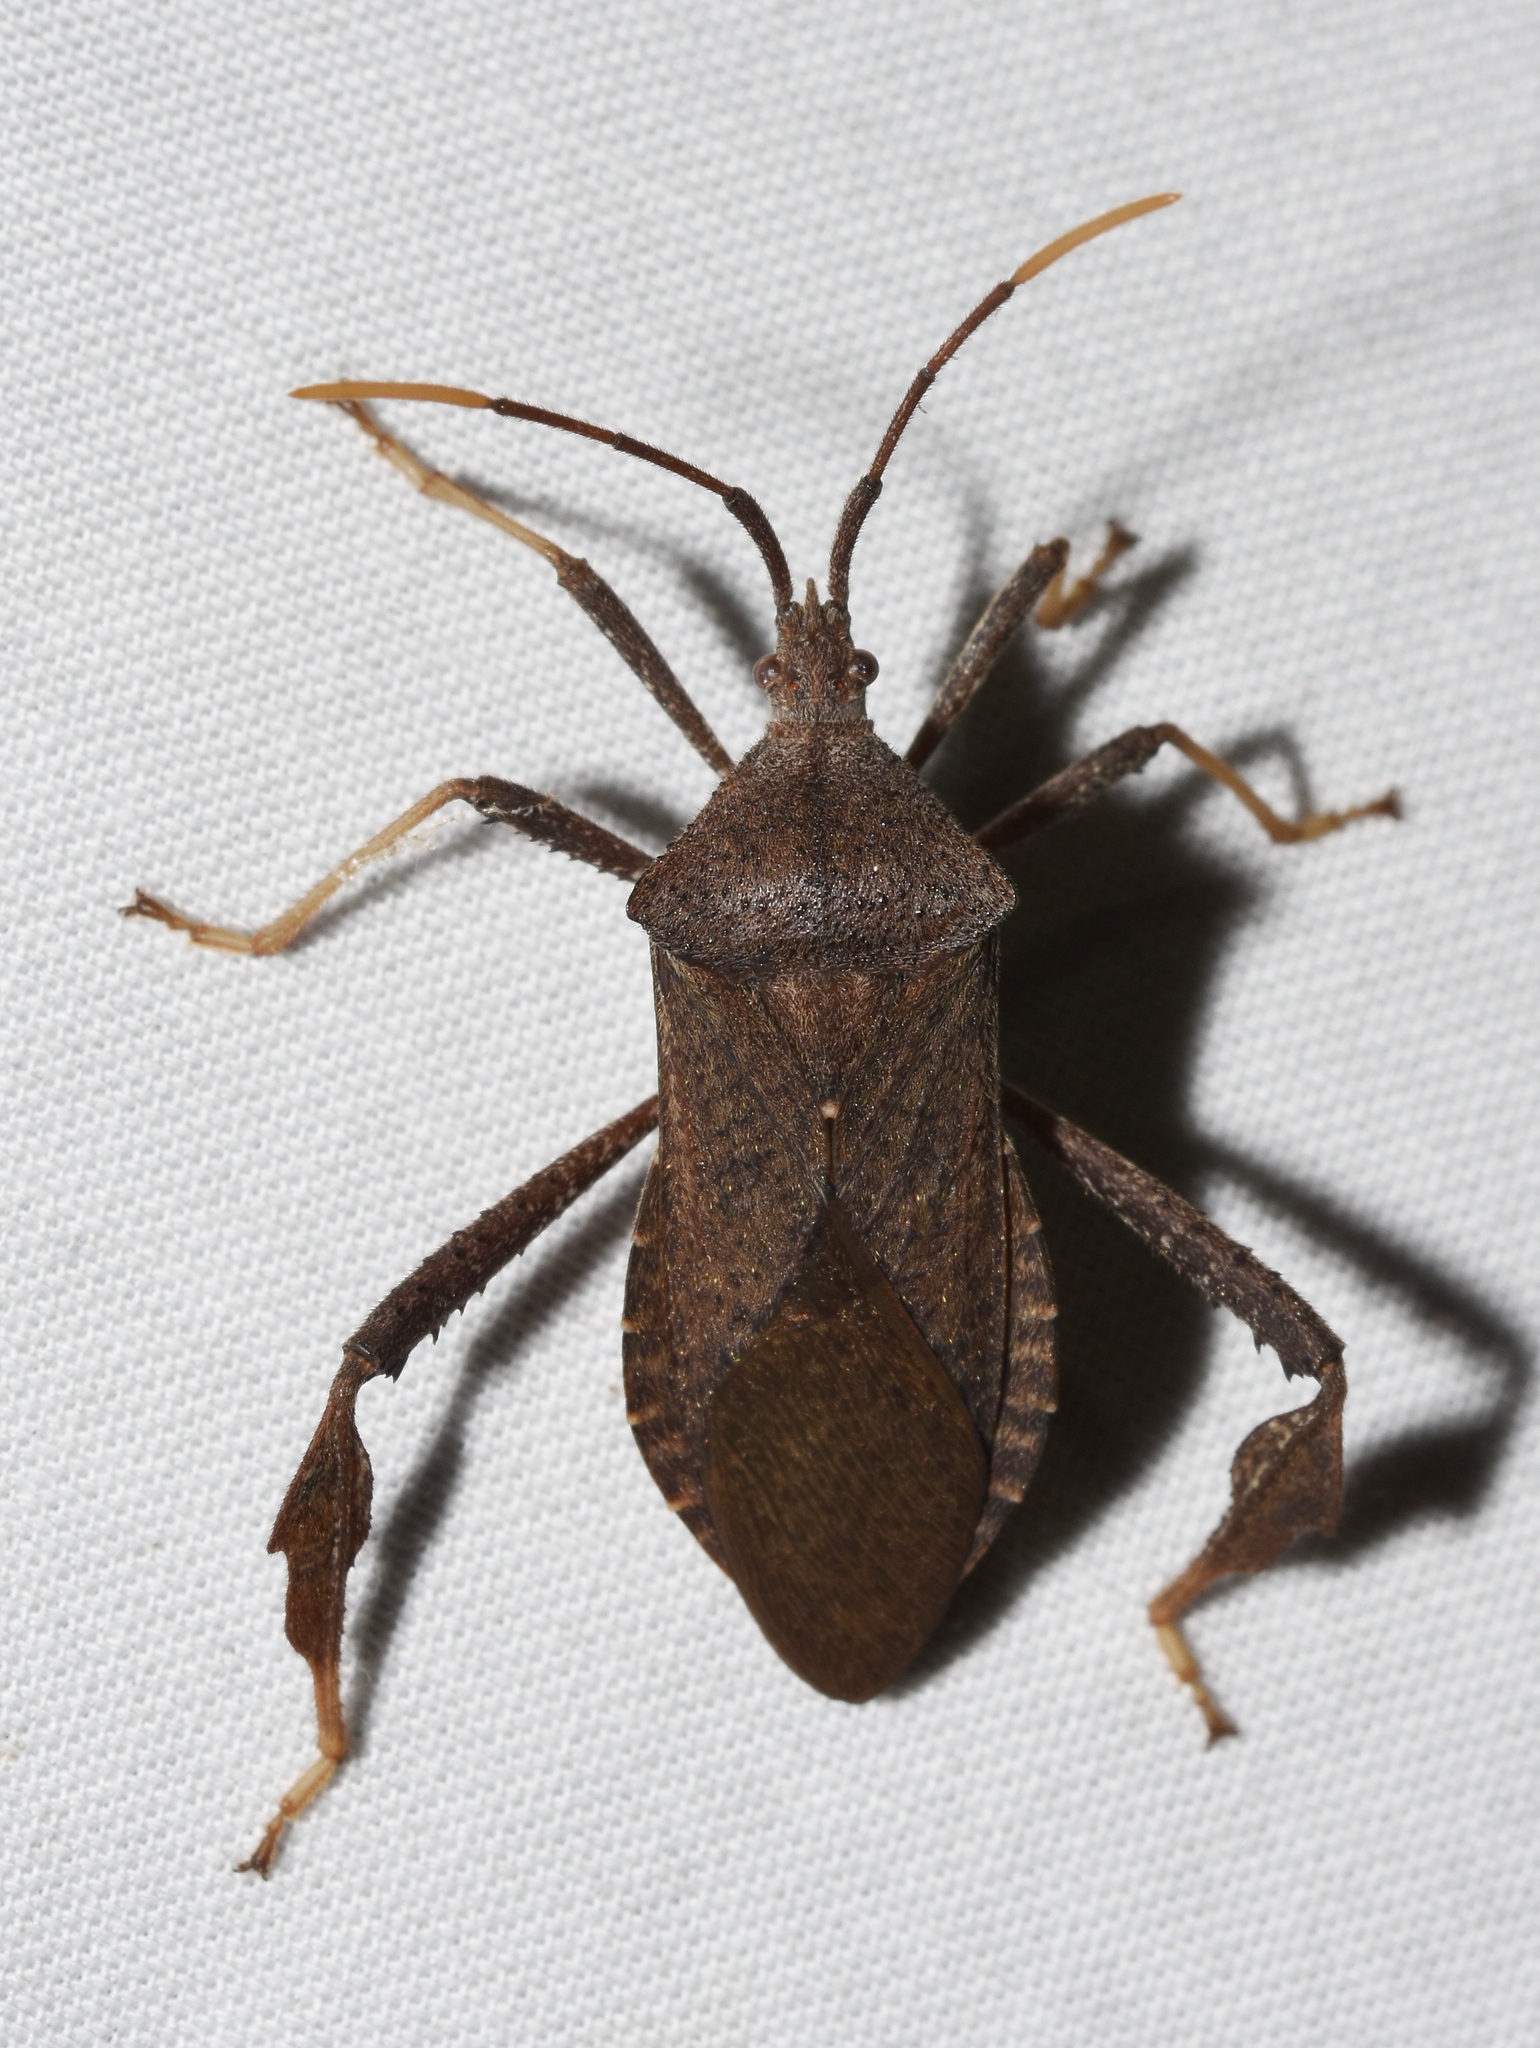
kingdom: Animalia
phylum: Arthropoda
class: Insecta
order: Hemiptera
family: Coreidae
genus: Acanthocephala
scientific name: Acanthocephala terminalis
